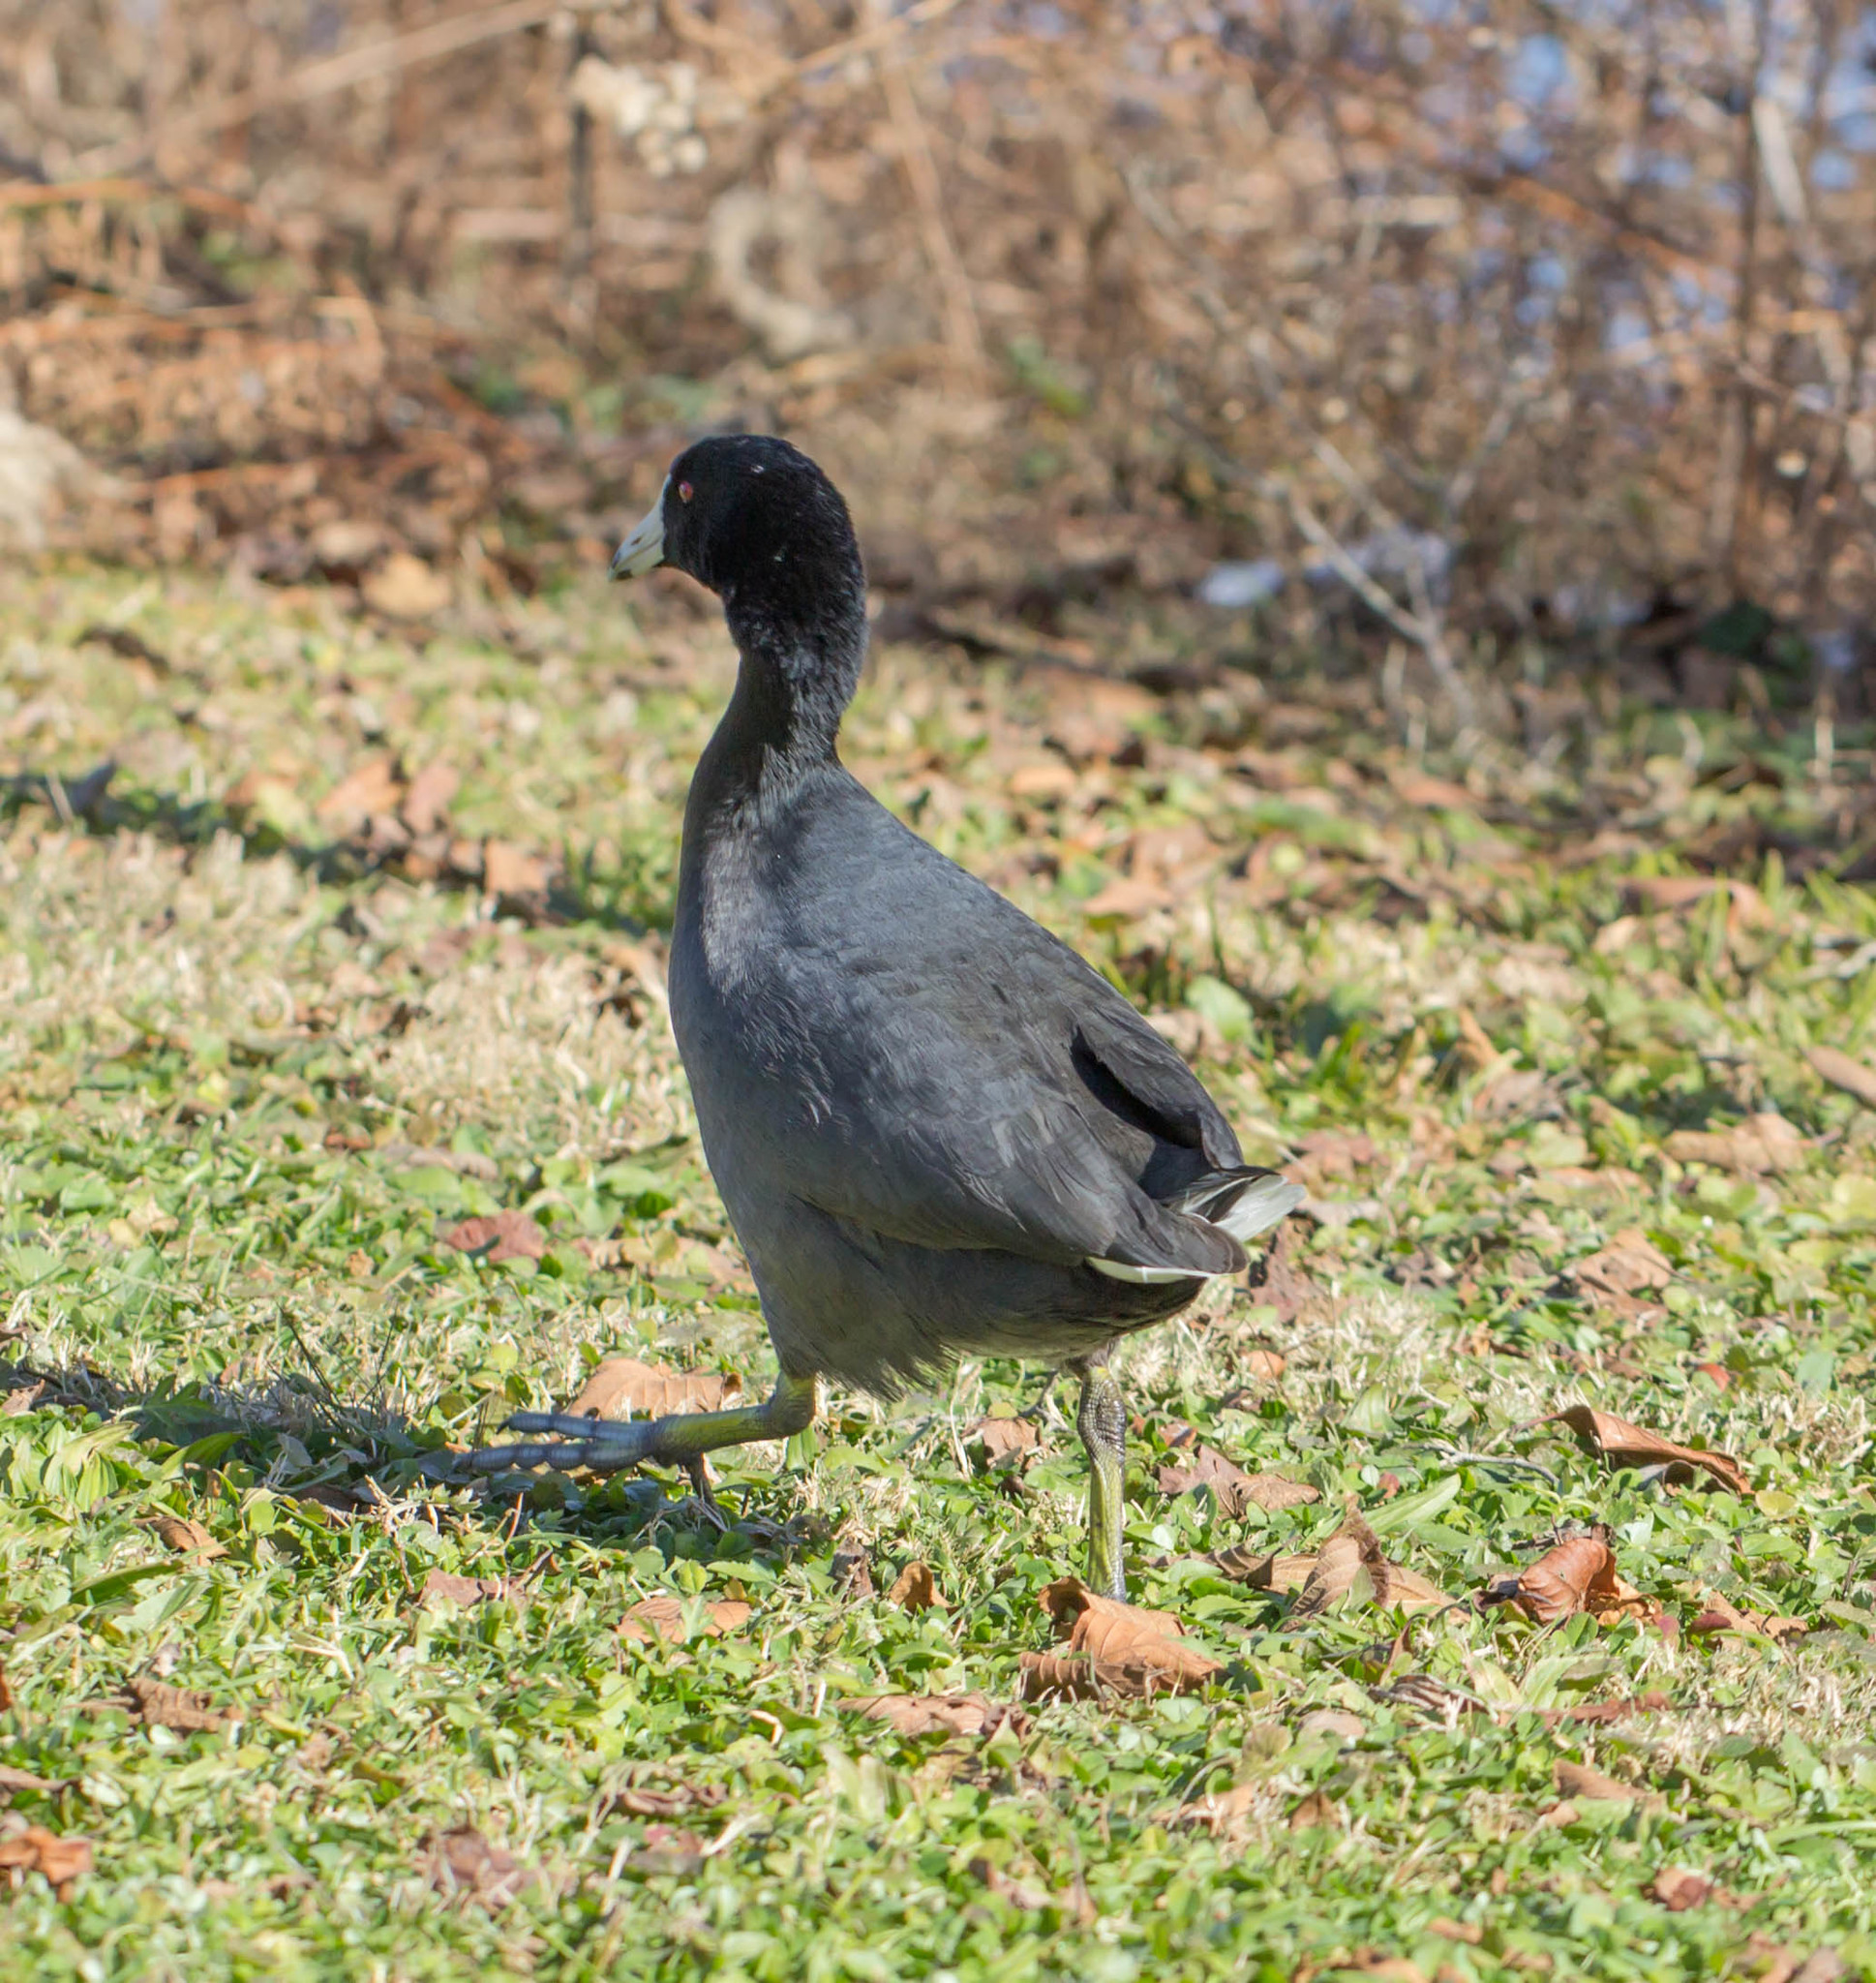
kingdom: Animalia
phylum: Chordata
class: Aves
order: Gruiformes
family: Rallidae
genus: Fulica
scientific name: Fulica americana
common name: American coot
